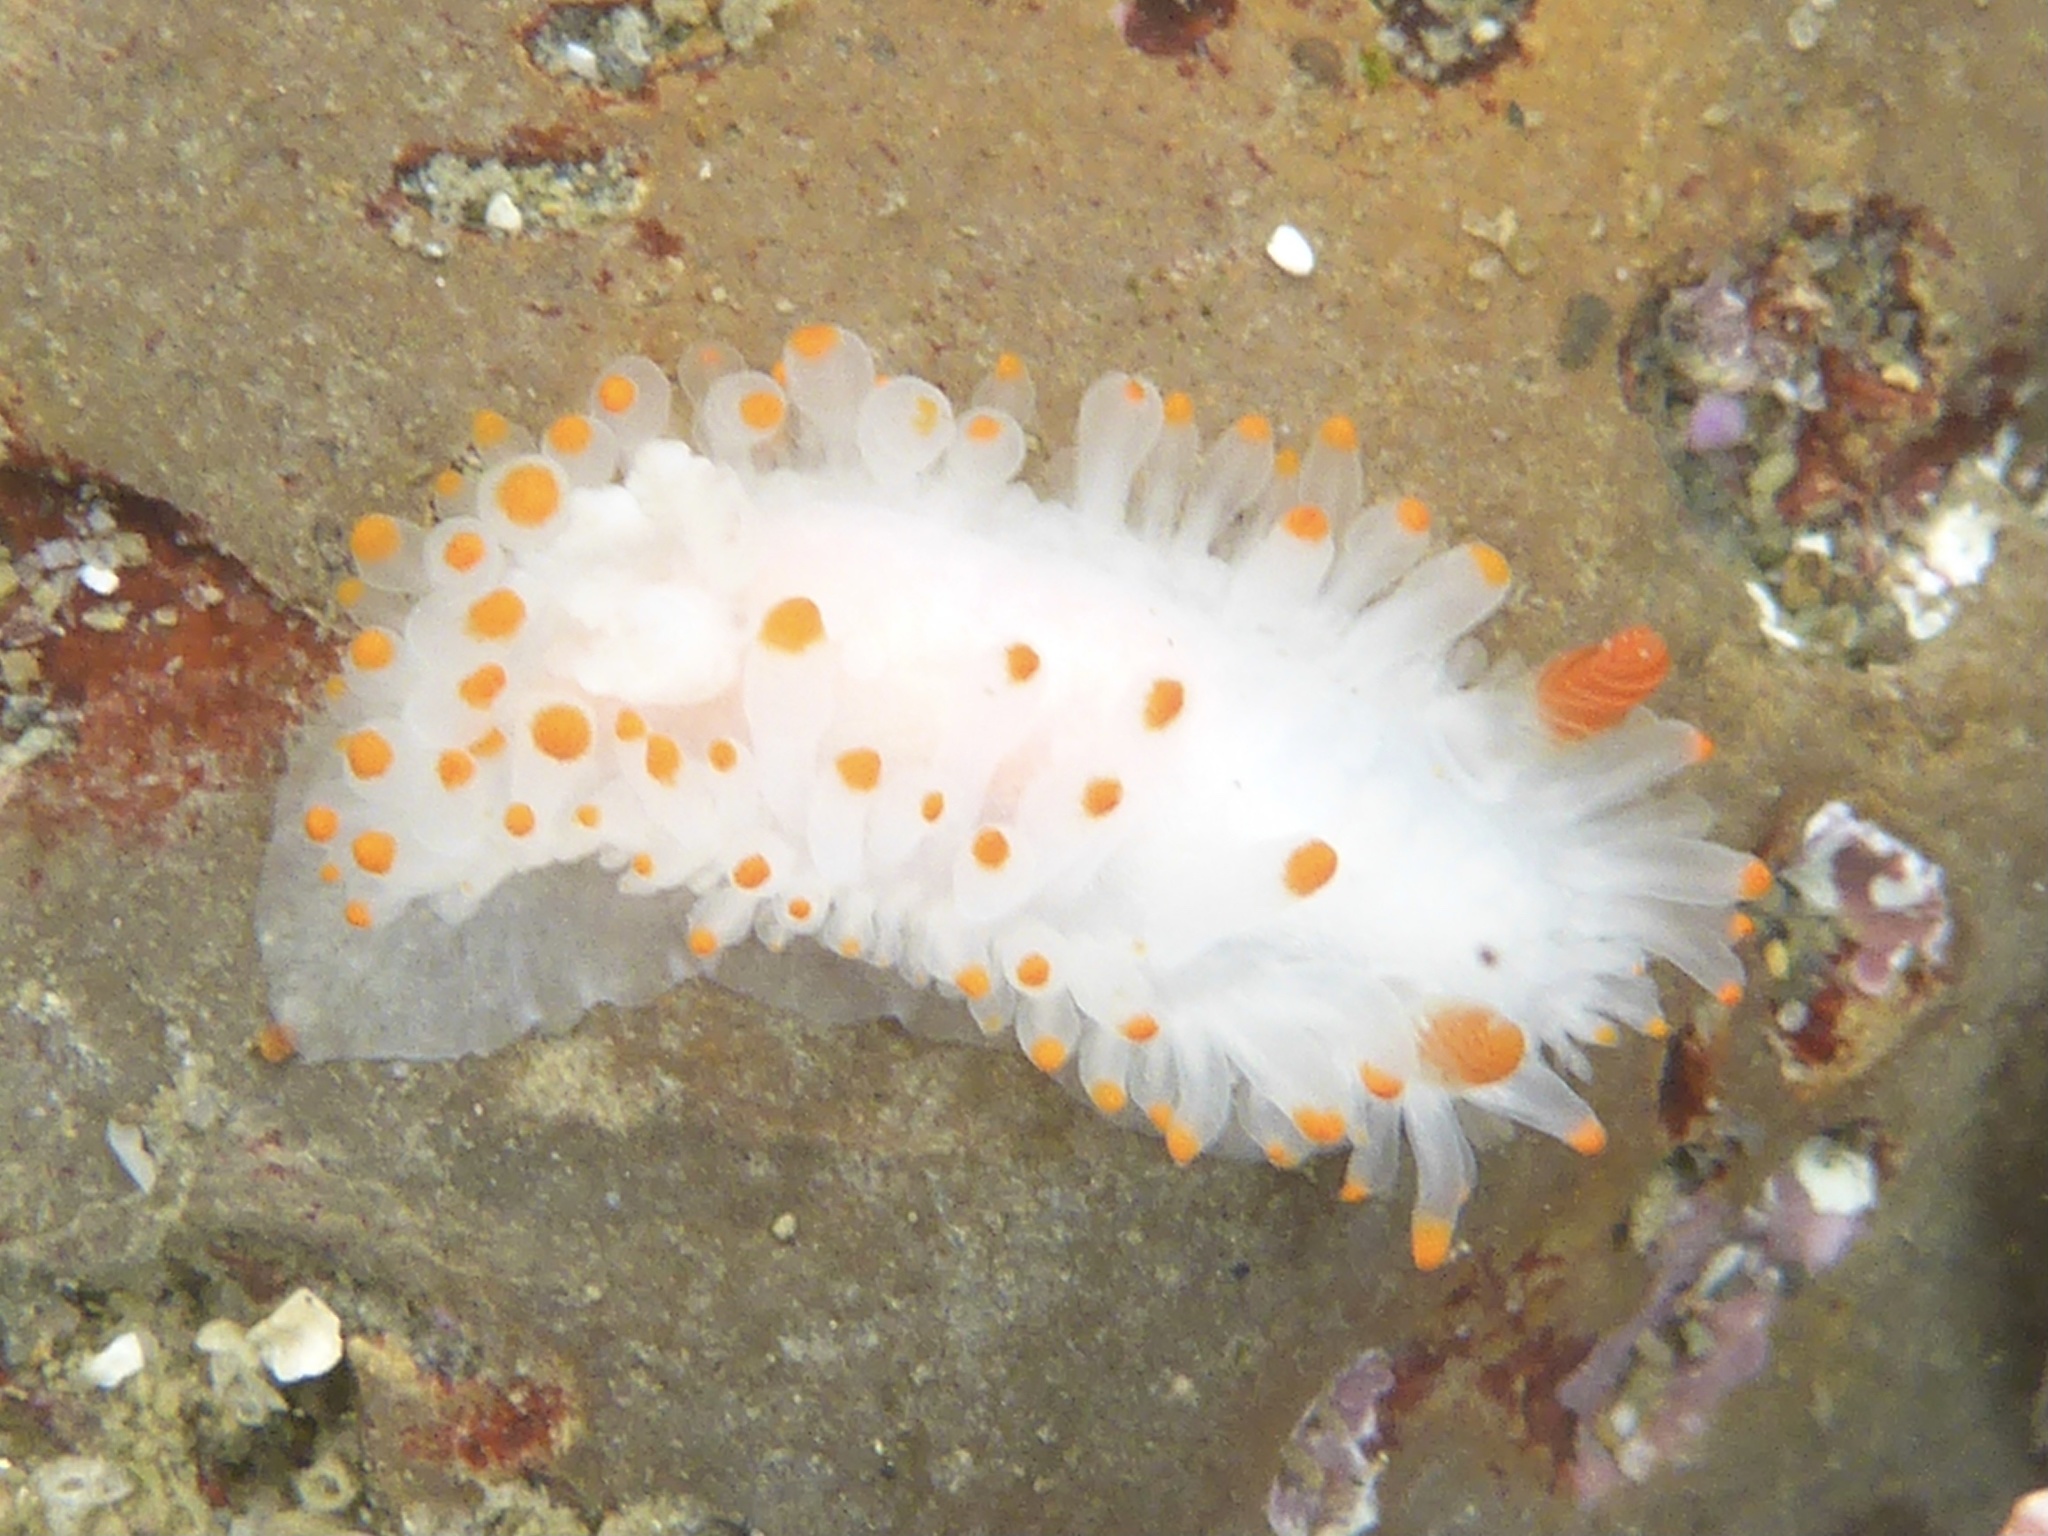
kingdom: Animalia
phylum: Mollusca
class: Gastropoda
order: Nudibranchia
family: Polyceridae
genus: Limacia
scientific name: Limacia cockerelli
